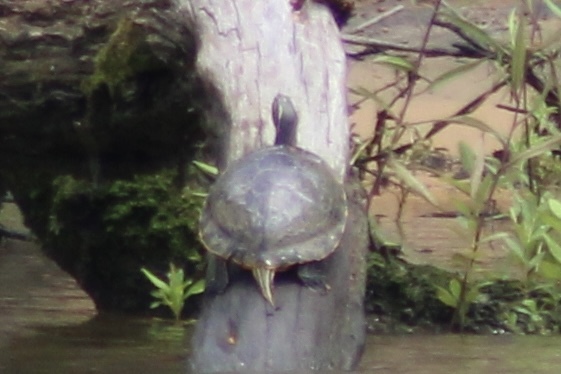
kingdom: Animalia
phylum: Chordata
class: Testudines
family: Emydidae
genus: Pseudemys
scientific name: Pseudemys concinna
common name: Eastern river cooter
